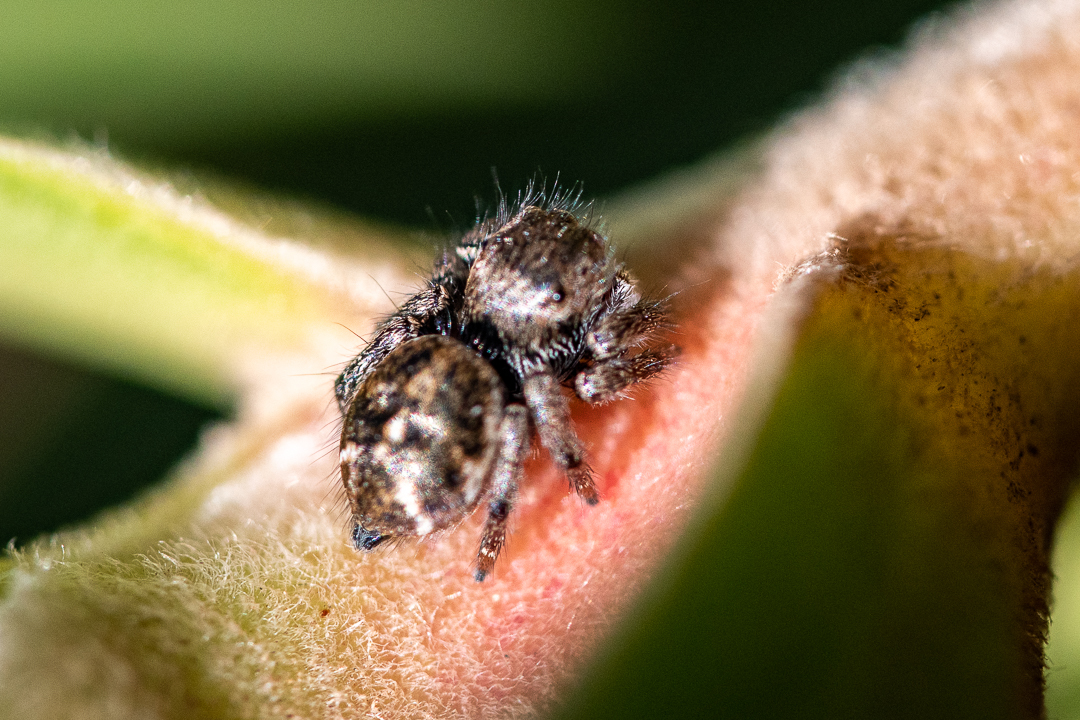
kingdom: Animalia
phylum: Arthropoda
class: Arachnida
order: Araneae
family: Salticidae
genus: Baryphas
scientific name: Baryphas ahenus
